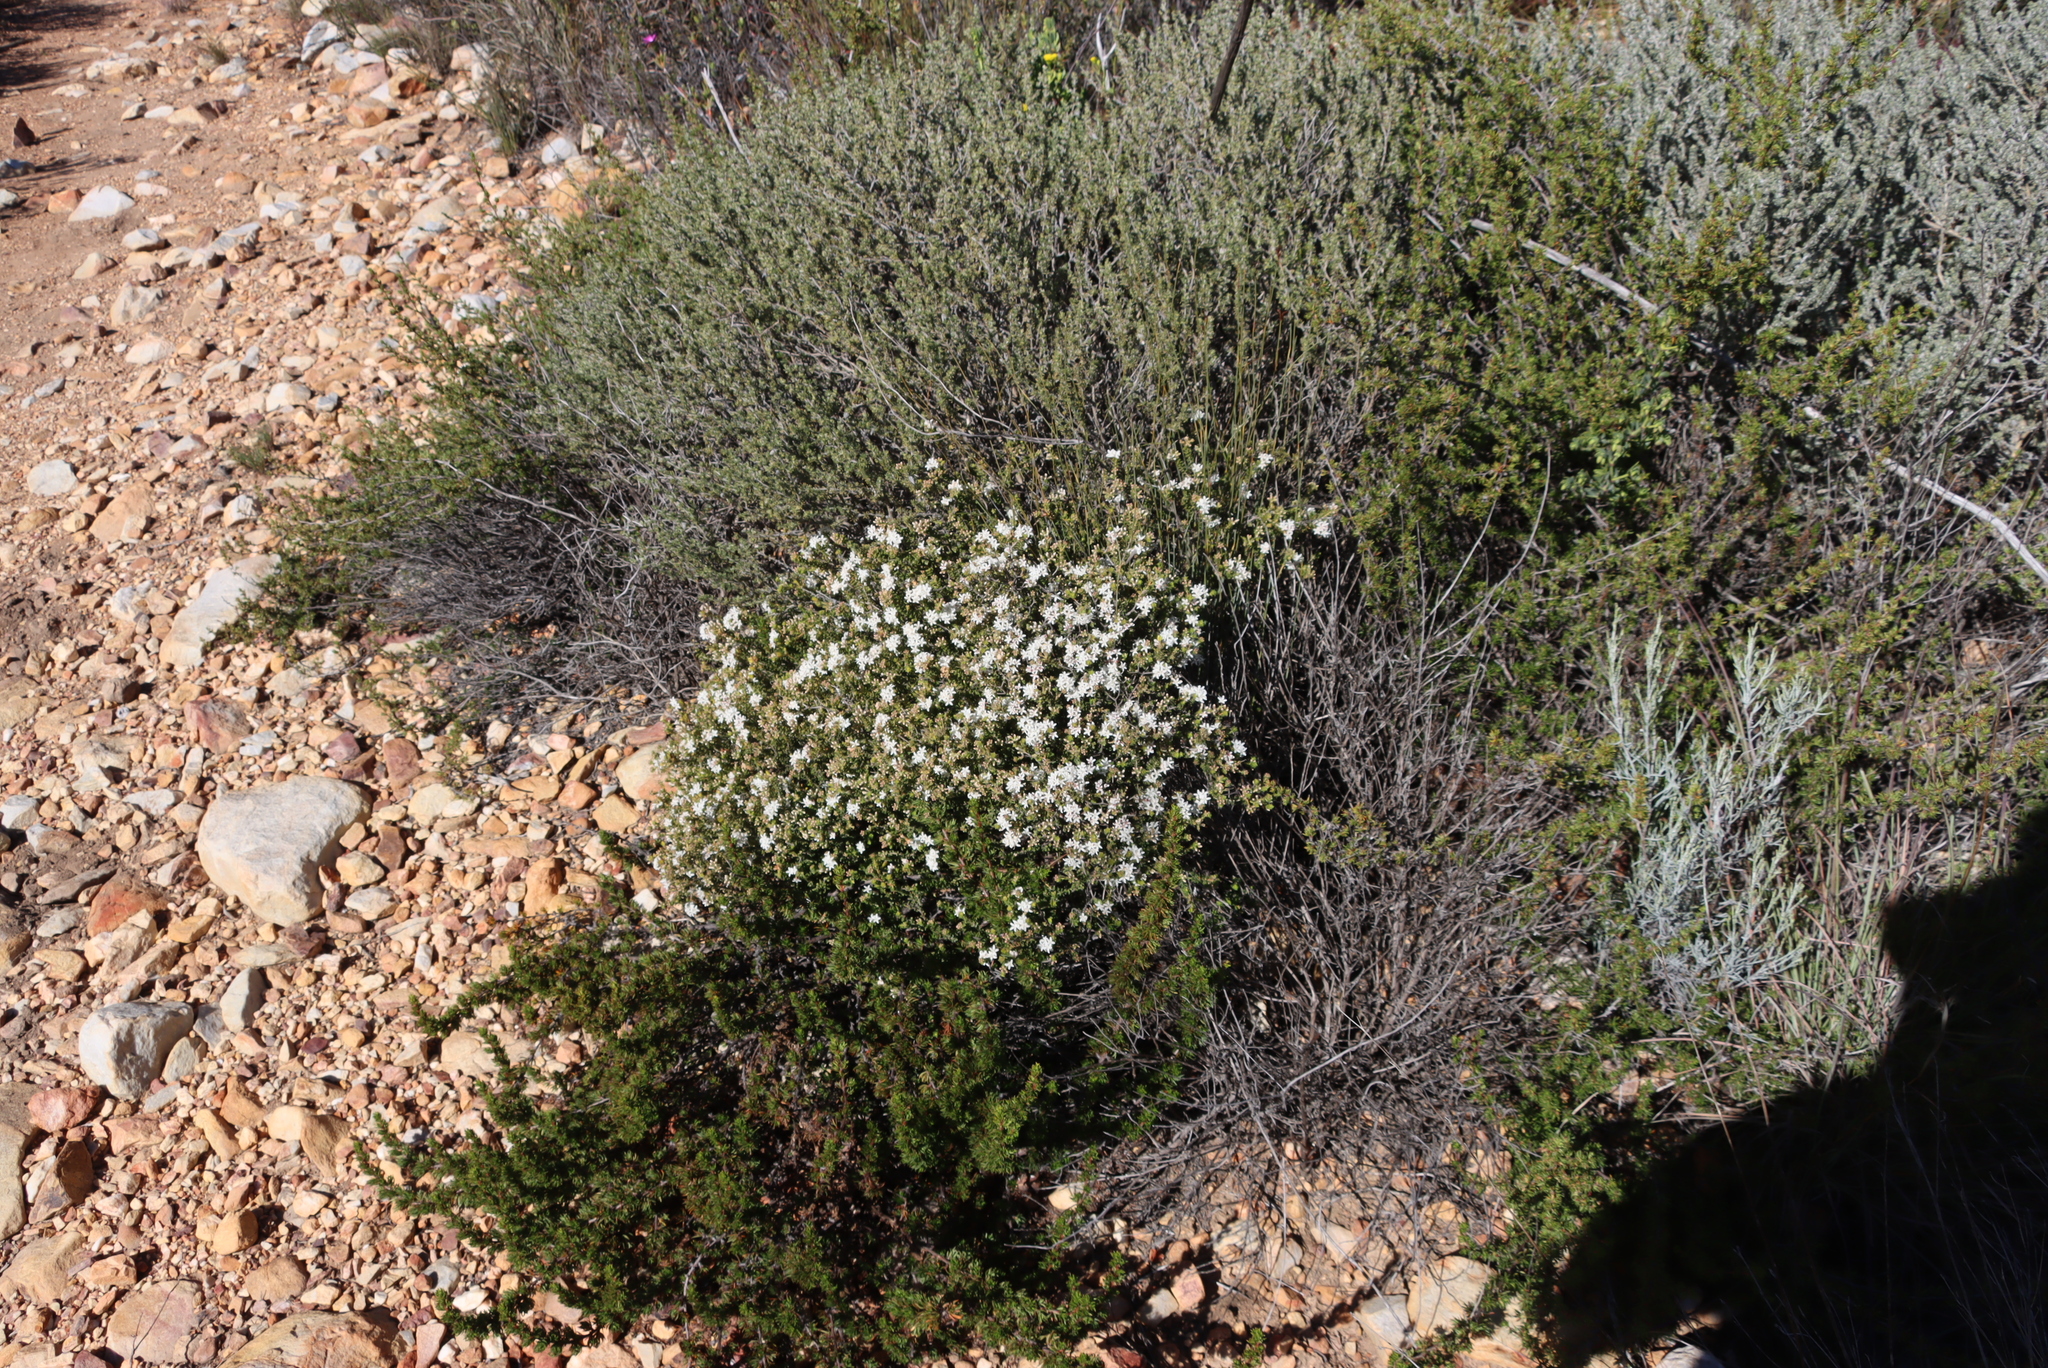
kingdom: Plantae
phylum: Tracheophyta
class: Magnoliopsida
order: Sapindales
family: Rutaceae
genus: Agathosma
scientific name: Agathosma recurvifolia
